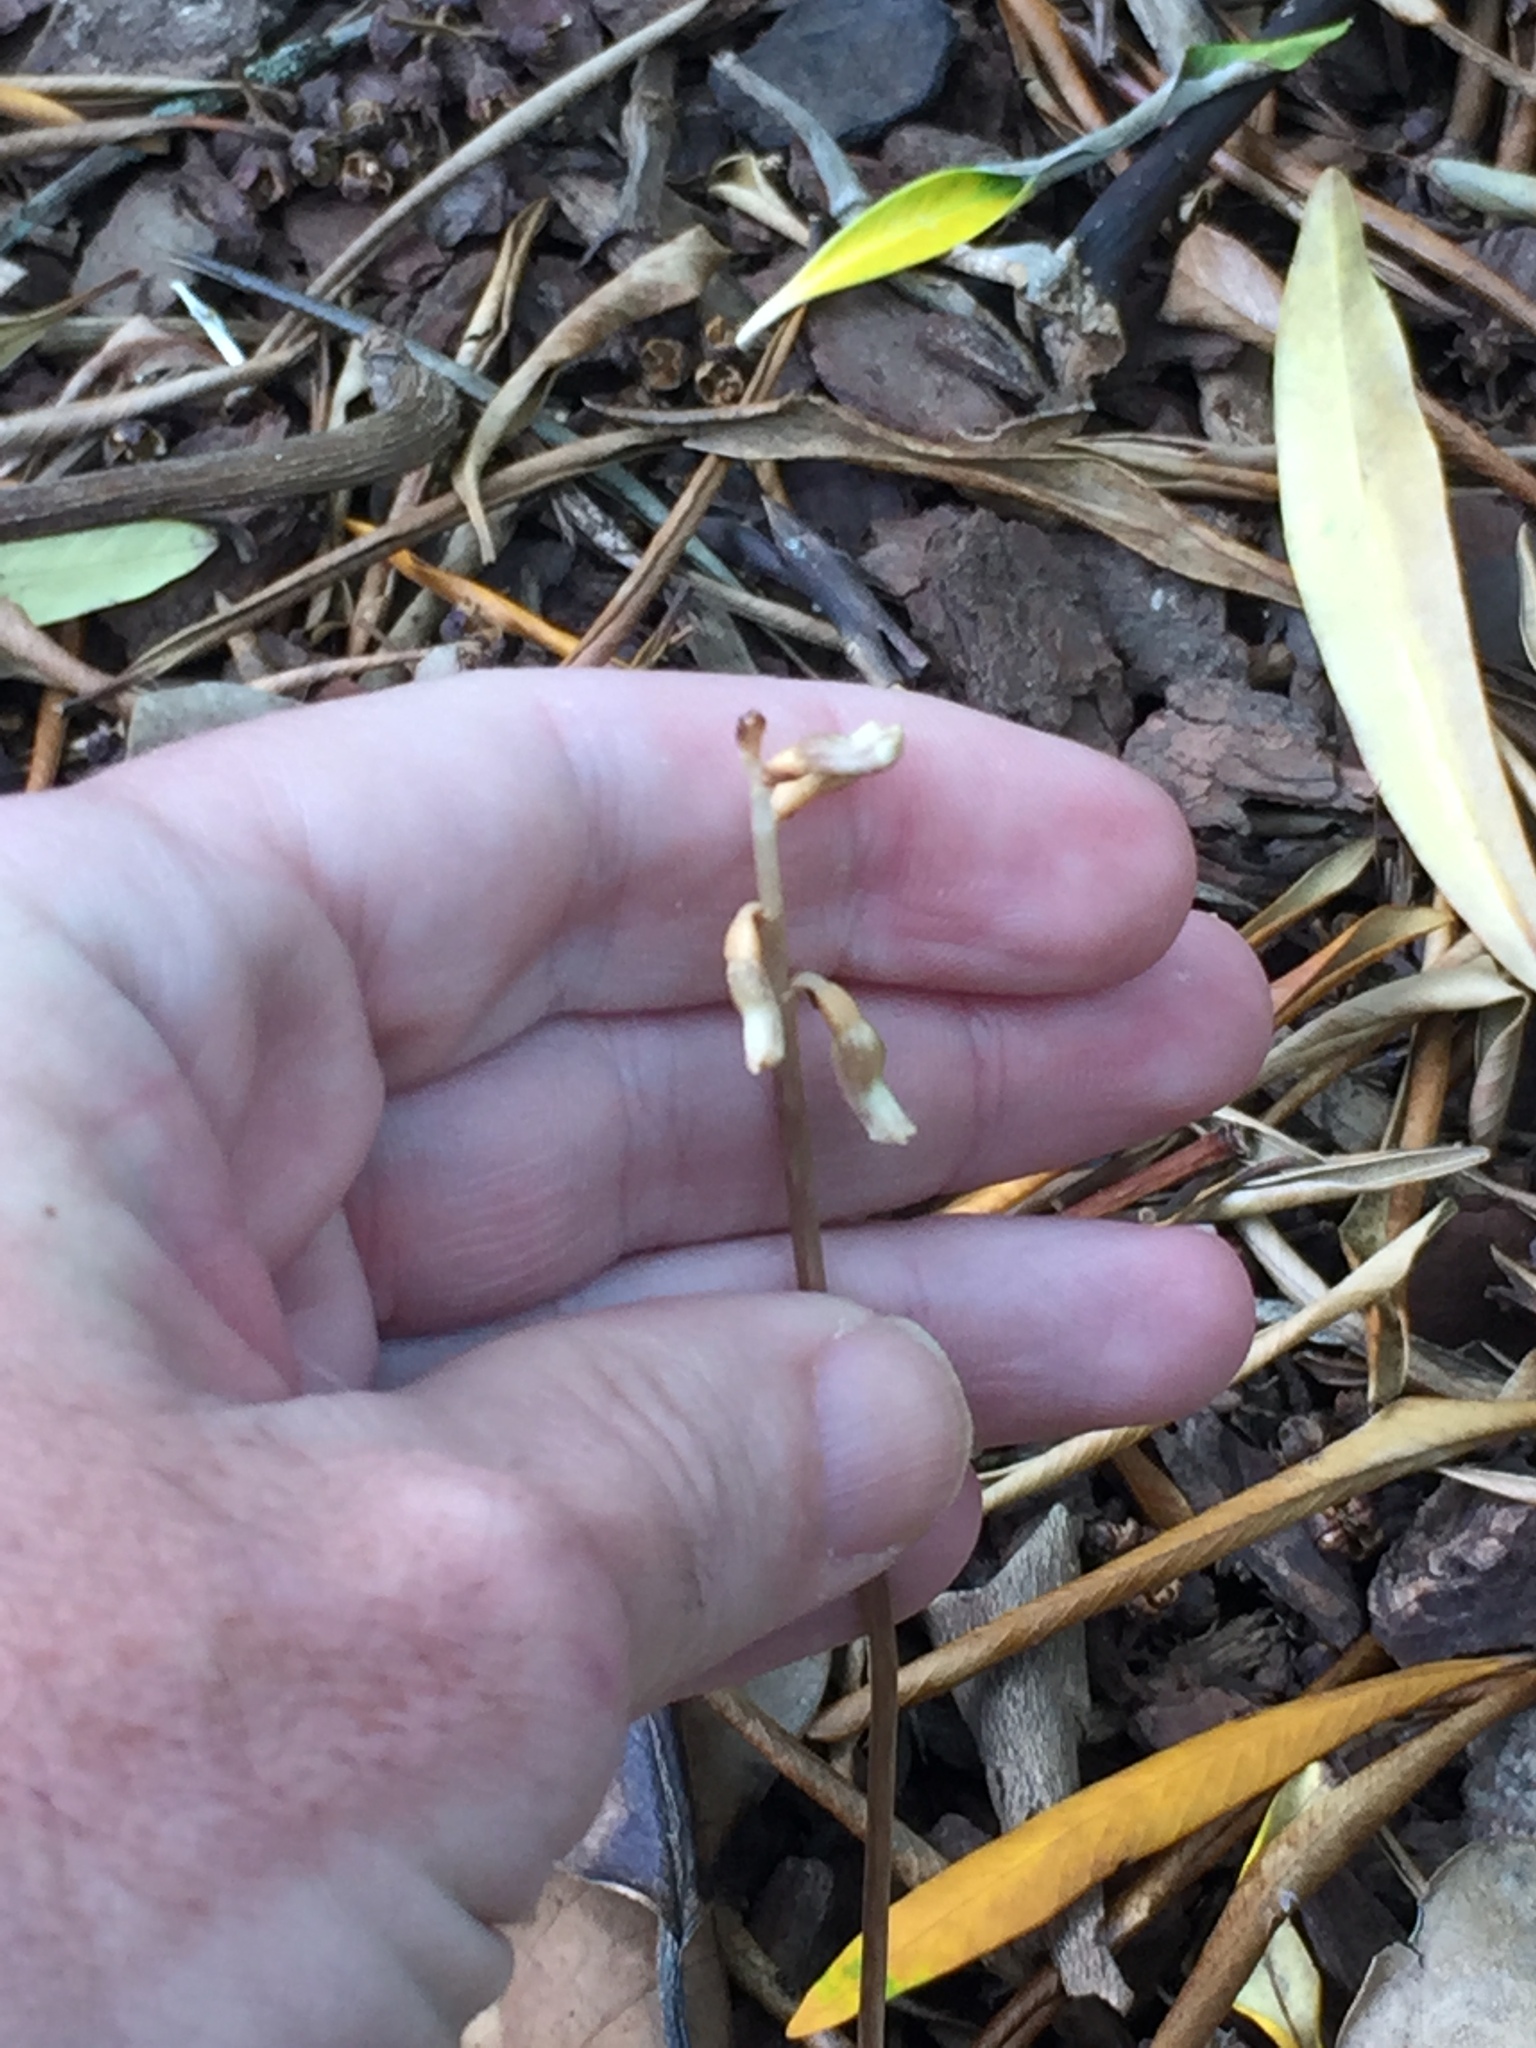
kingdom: Plantae
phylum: Tracheophyta
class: Liliopsida
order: Asparagales
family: Orchidaceae
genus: Gastrodia
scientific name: Gastrodia sesamoides
